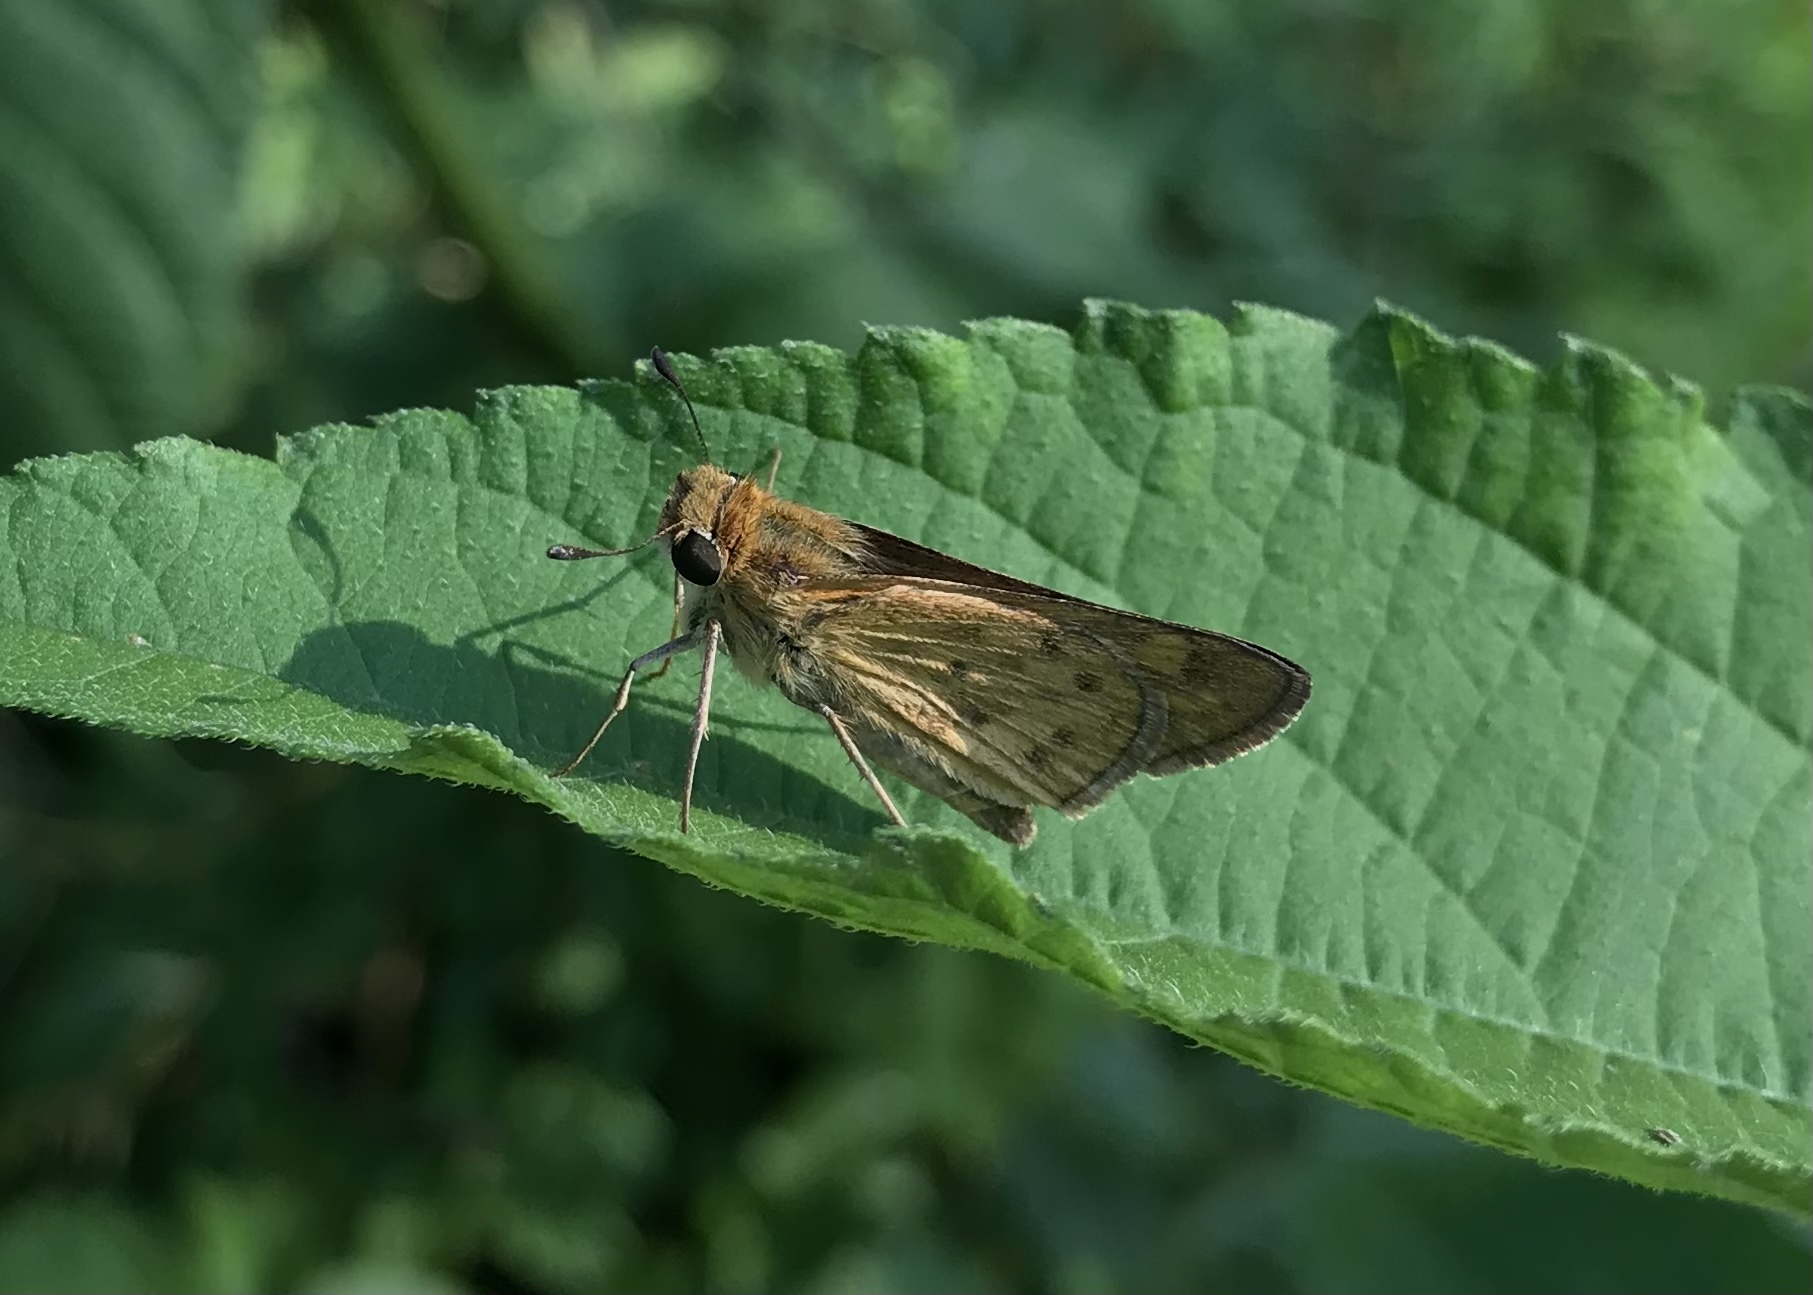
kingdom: Animalia
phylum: Arthropoda
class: Insecta
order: Lepidoptera
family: Hesperiidae
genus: Hylephila
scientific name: Hylephila phyleus
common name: Fiery skipper
